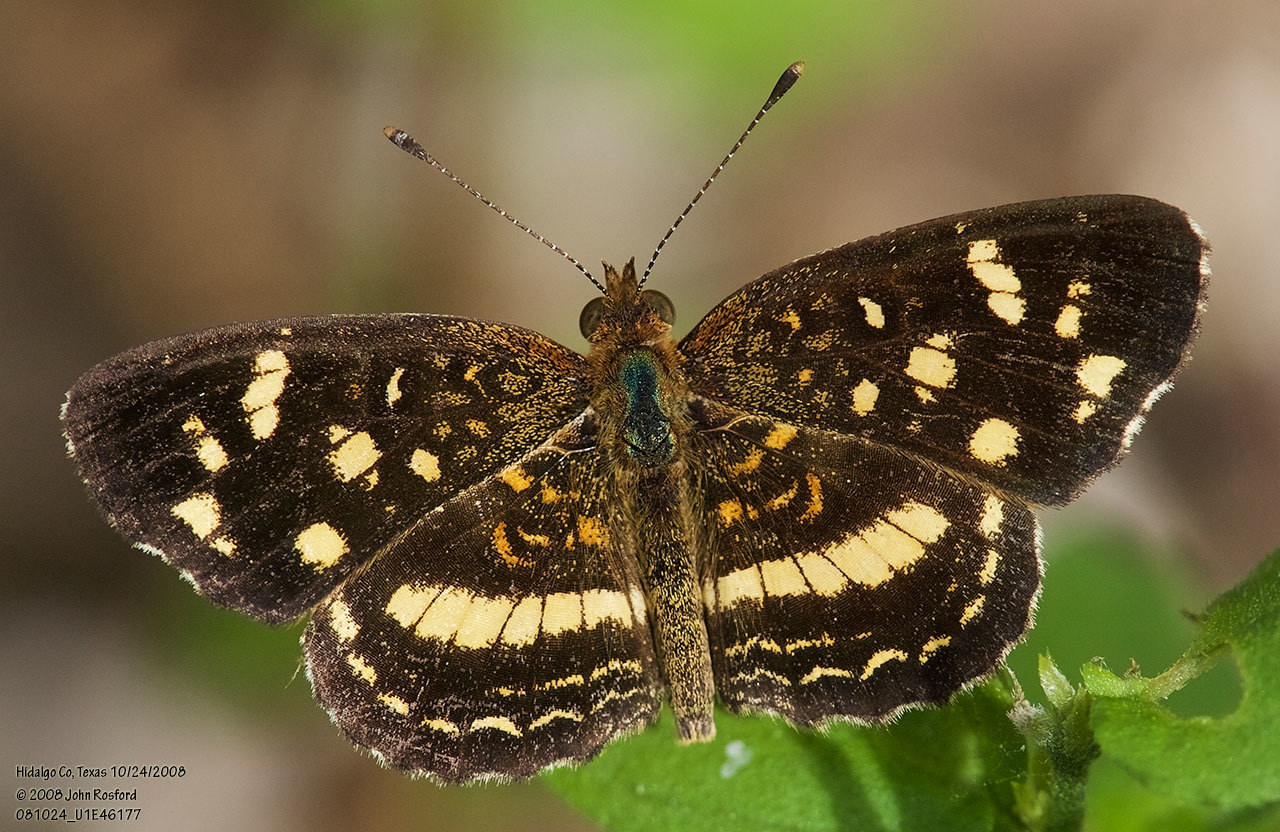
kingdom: Animalia
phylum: Arthropoda
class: Insecta
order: Lepidoptera
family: Nymphalidae
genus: Anthanassa
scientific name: Anthanassa tulcis
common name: Pale-banded crescent
